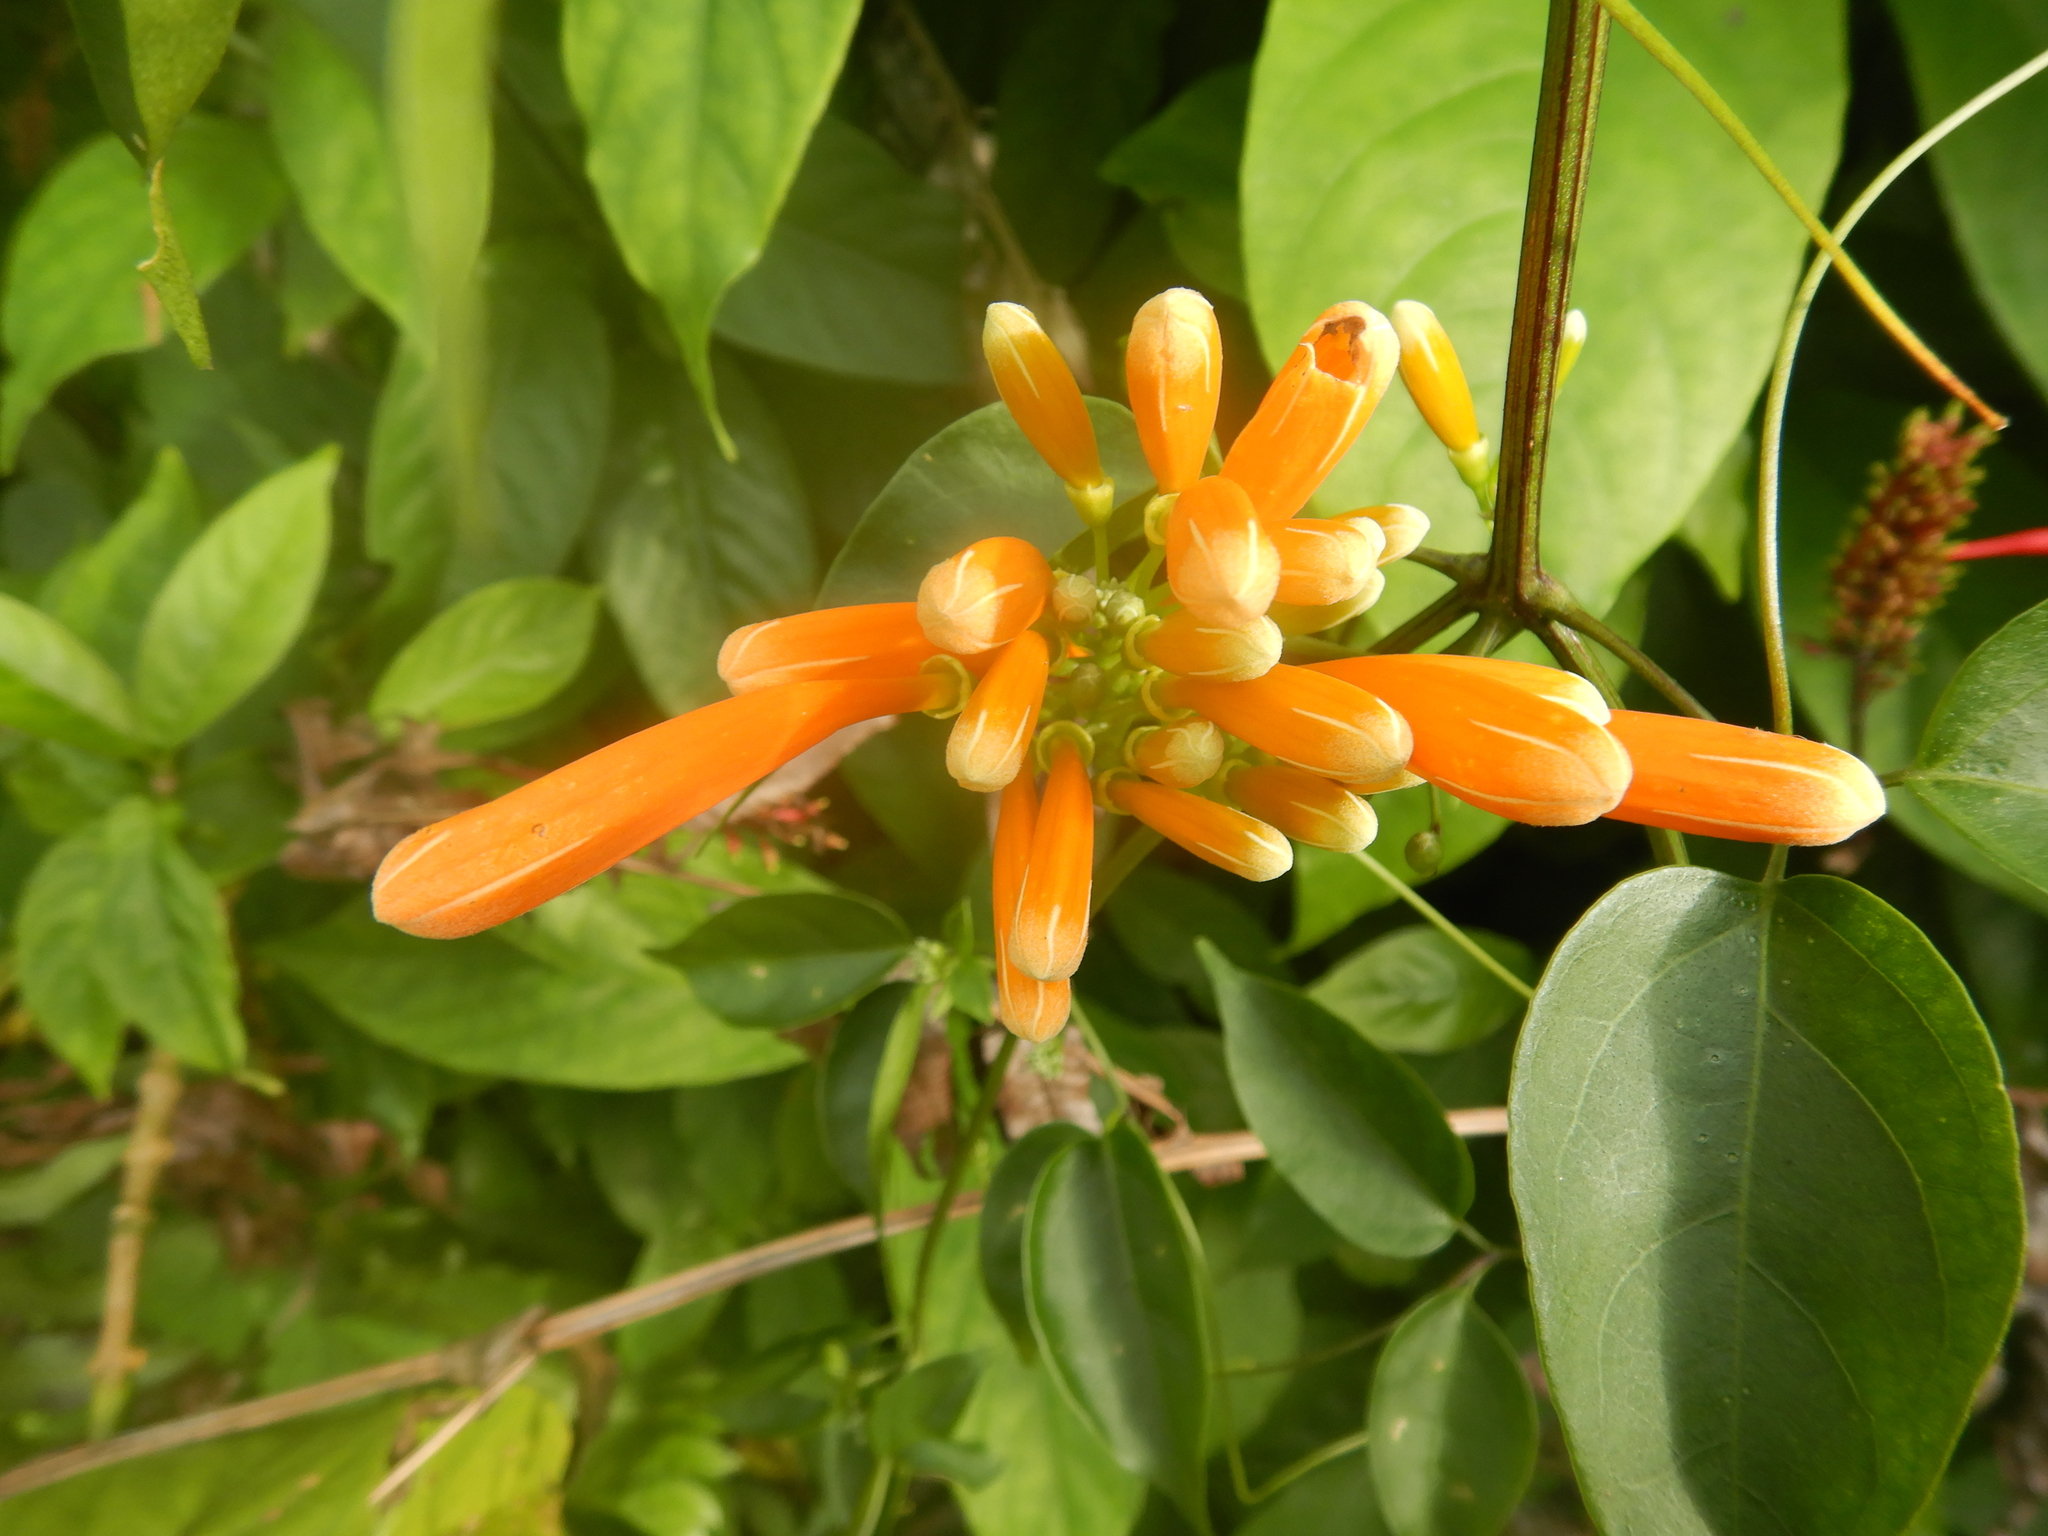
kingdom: Plantae
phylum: Tracheophyta
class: Magnoliopsida
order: Lamiales
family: Bignoniaceae
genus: Pyrostegia
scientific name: Pyrostegia venusta
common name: Flamevine
